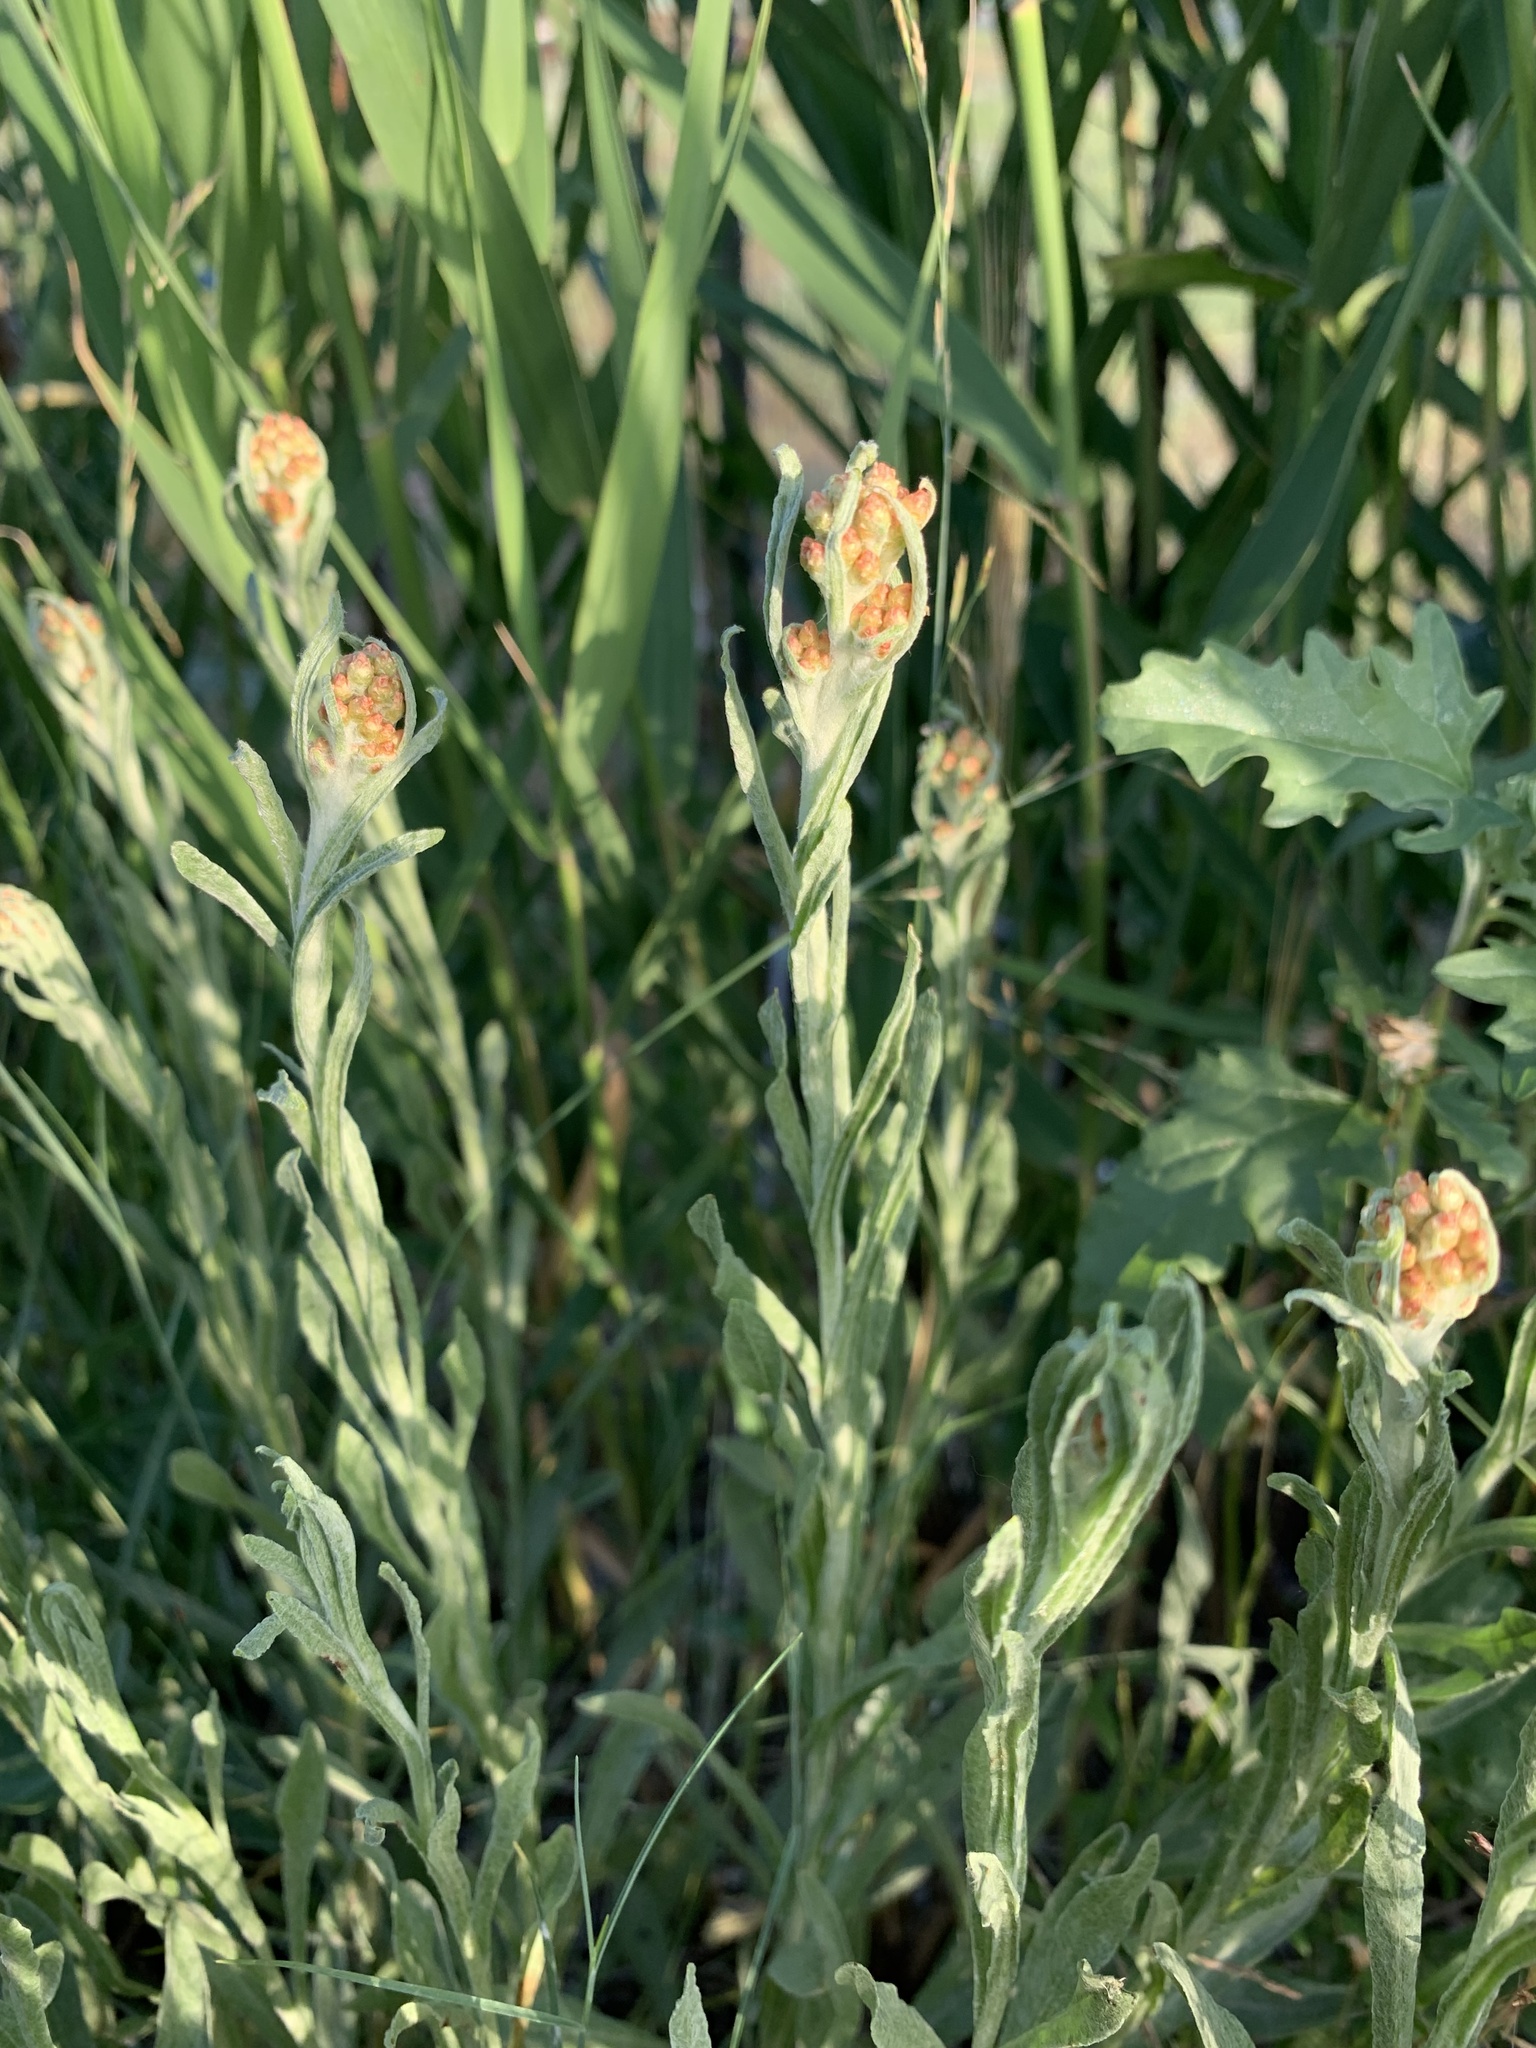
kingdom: Plantae
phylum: Tracheophyta
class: Magnoliopsida
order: Asterales
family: Asteraceae
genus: Helichrysum
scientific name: Helichrysum arenarium
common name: Strawflower
